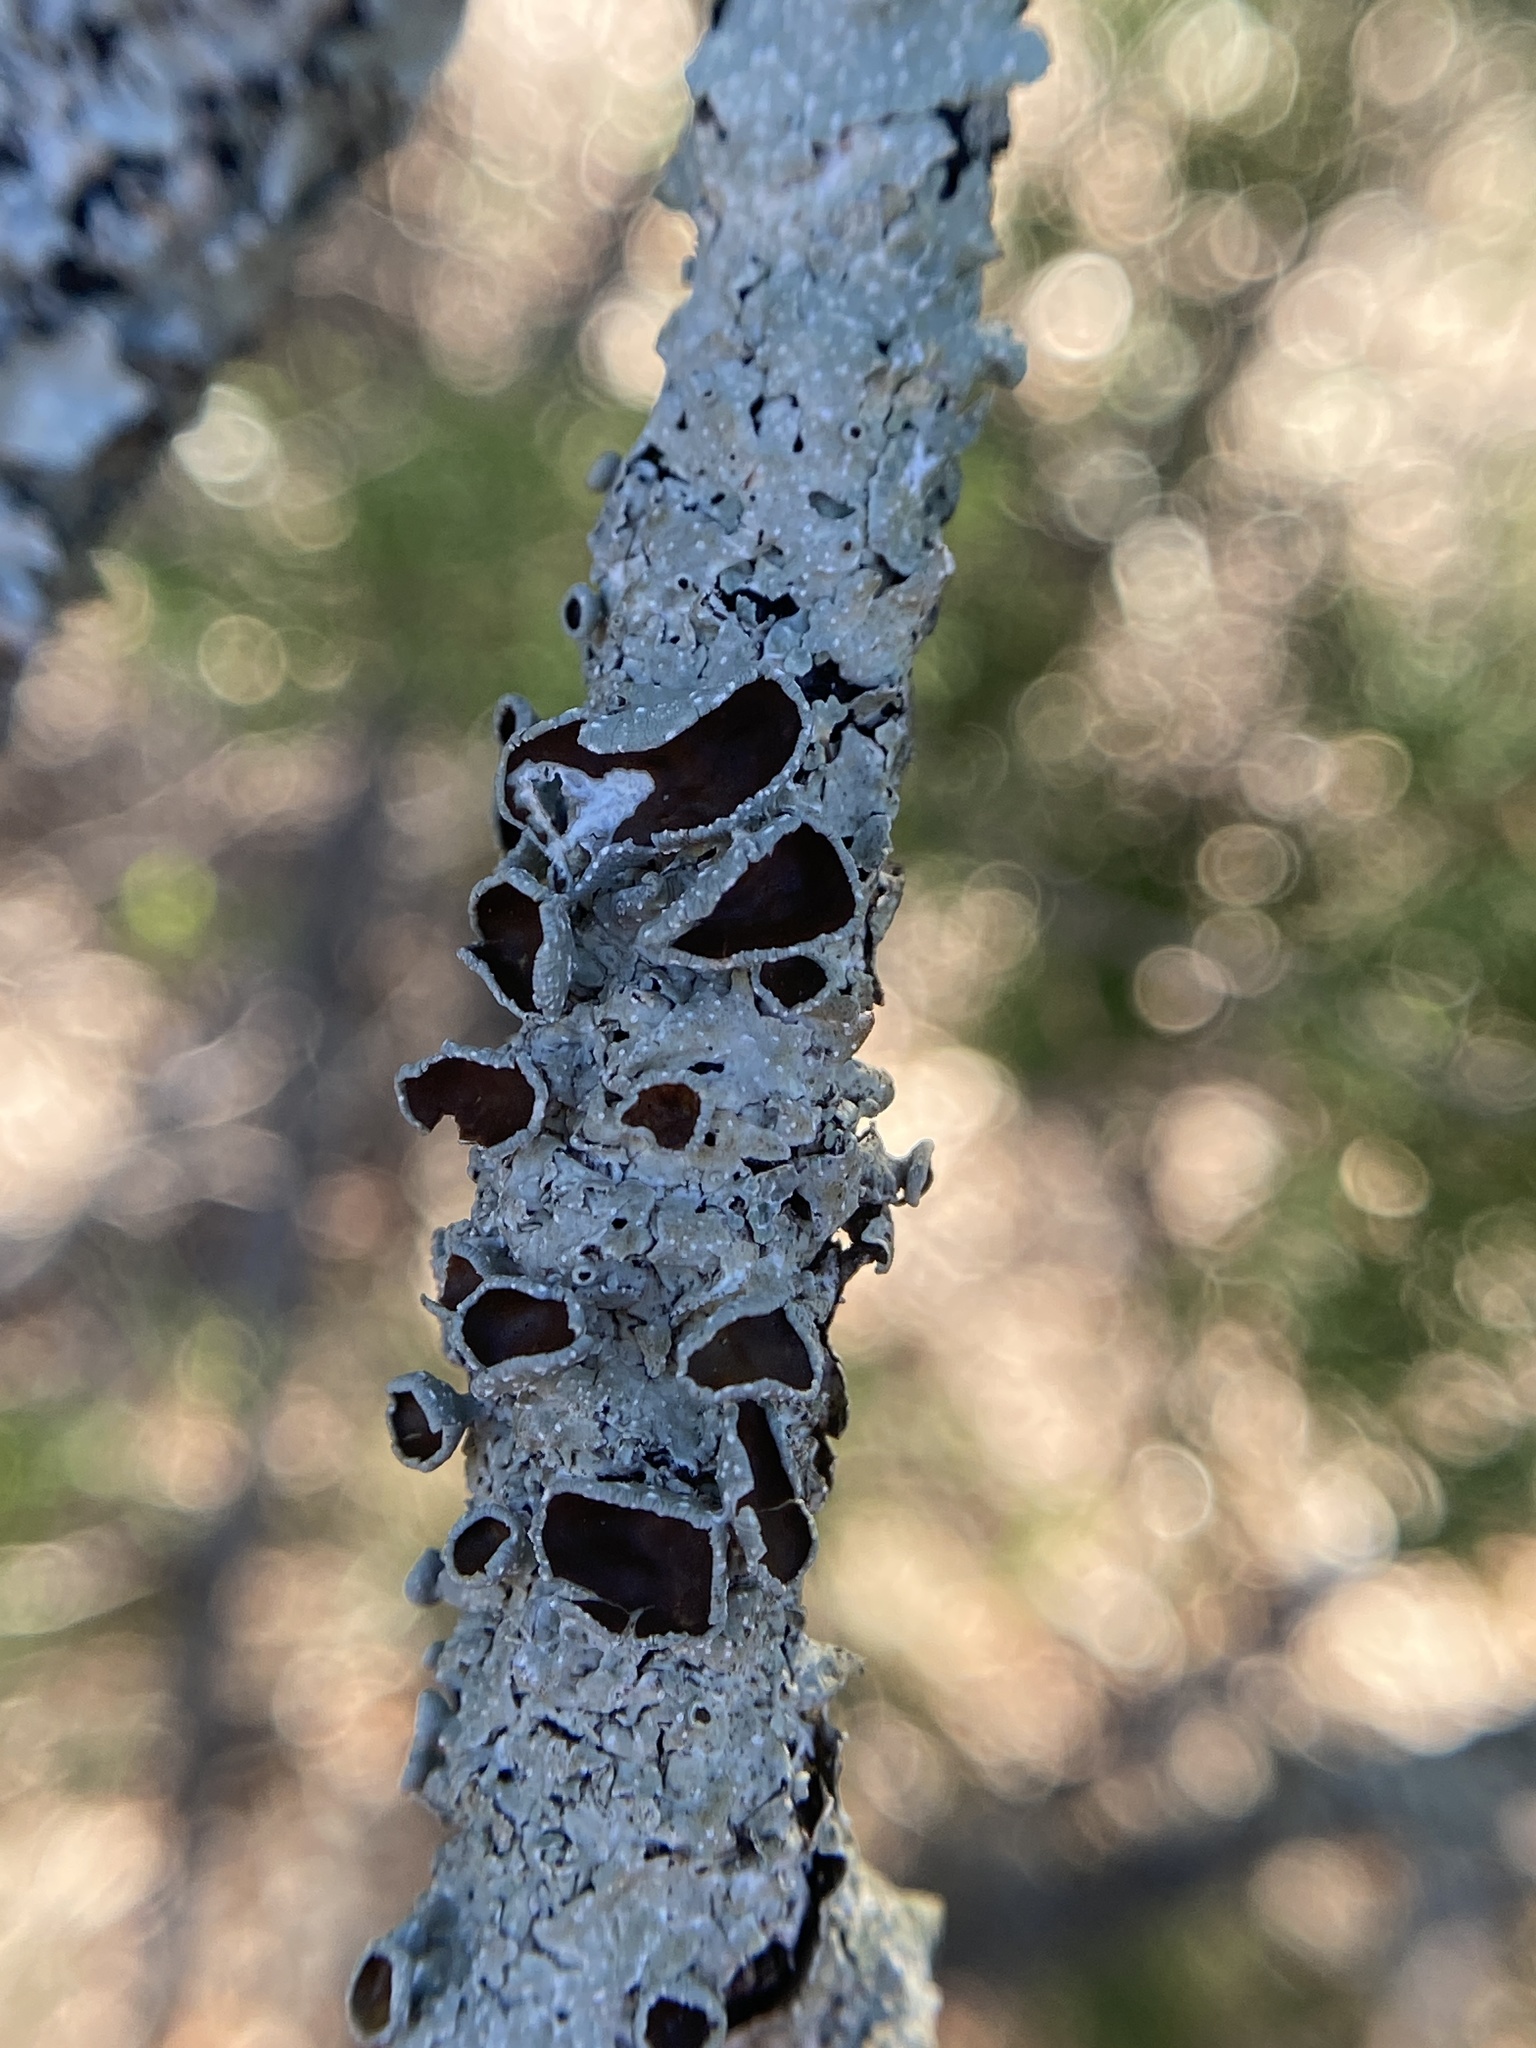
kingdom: Fungi
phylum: Ascomycota
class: Lecanoromycetes
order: Lecanorales
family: Parmeliaceae
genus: Punctelia
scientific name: Punctelia bolliana
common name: Eastern speckled shield lichen
